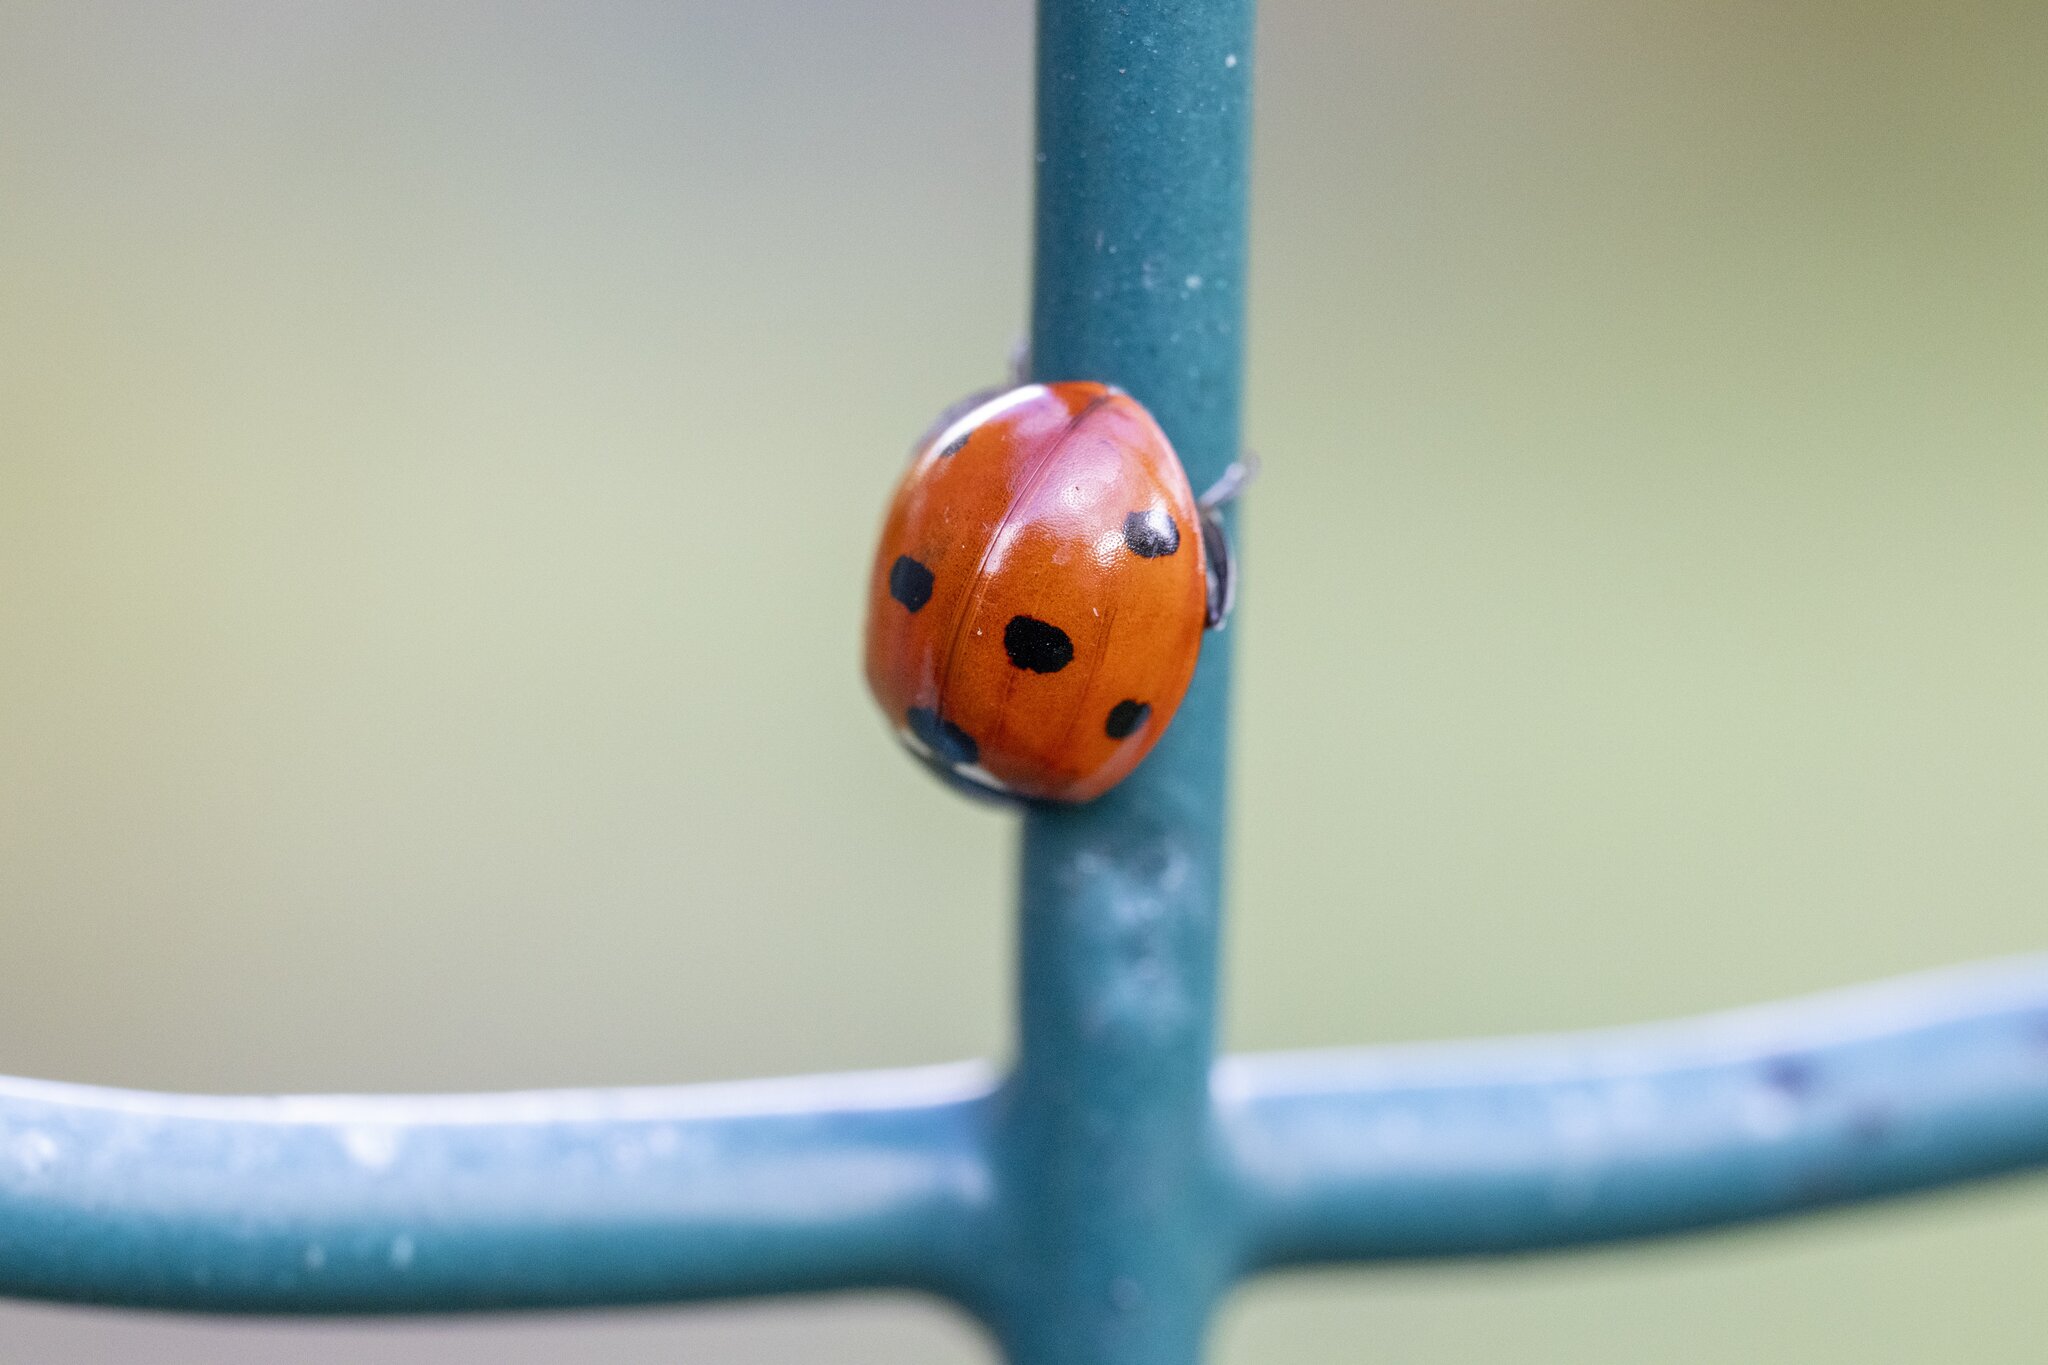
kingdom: Animalia
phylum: Arthropoda
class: Insecta
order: Coleoptera
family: Coccinellidae
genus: Coccinella
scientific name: Coccinella septempunctata
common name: Sevenspotted lady beetle
